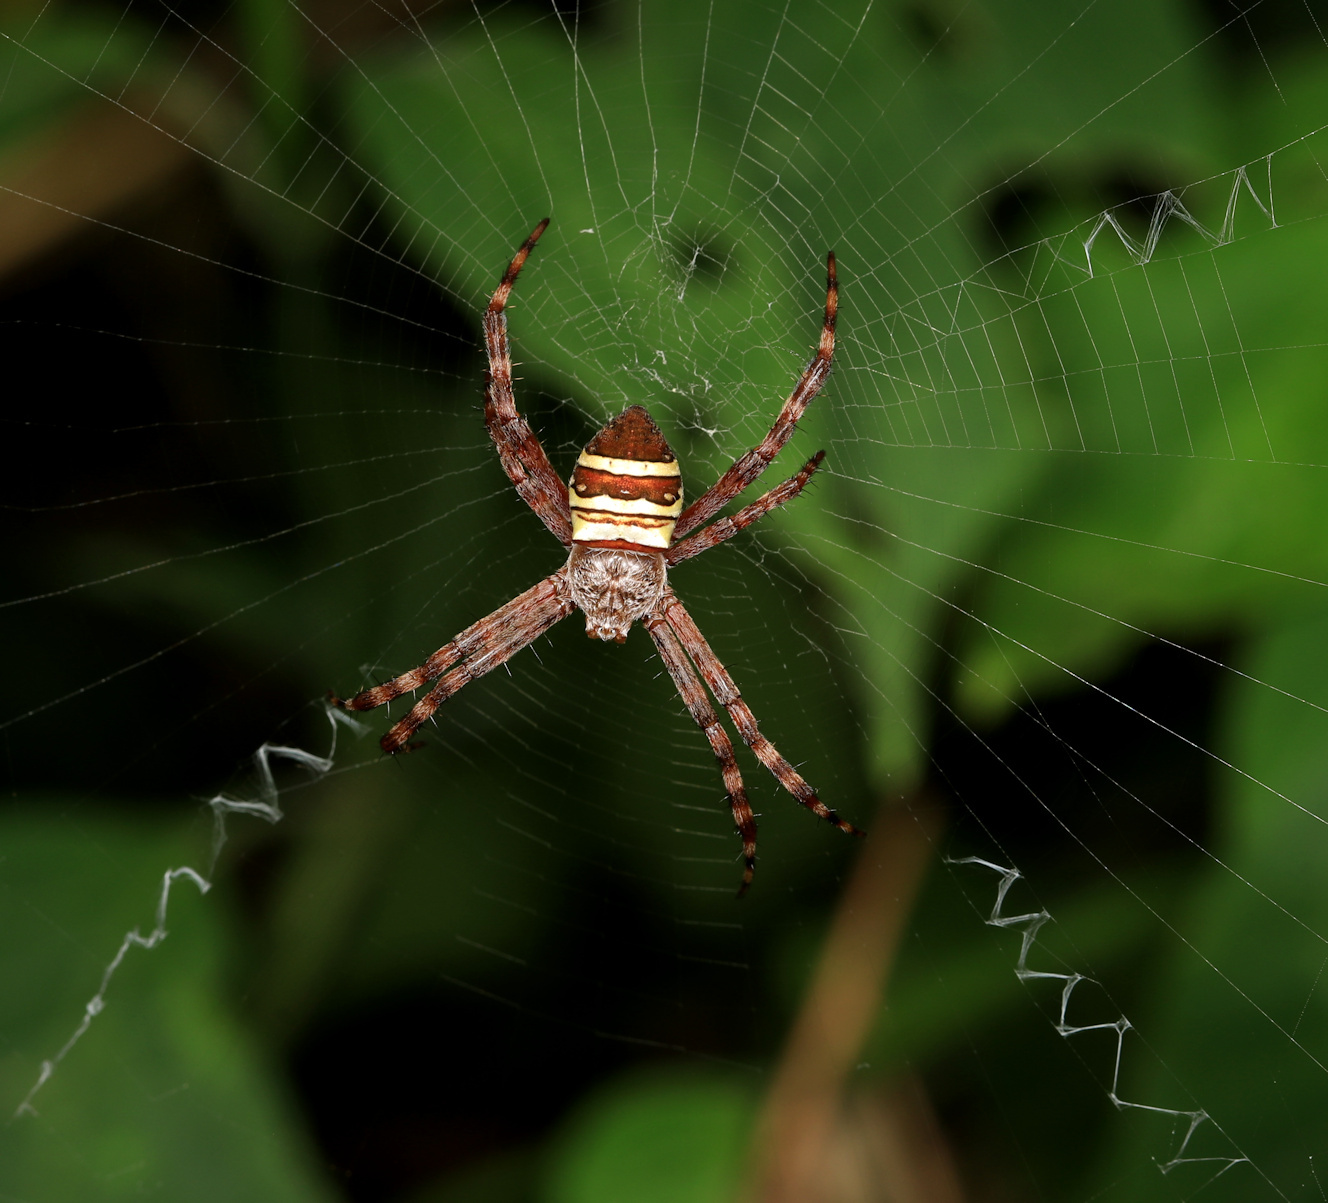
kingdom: Animalia
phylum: Arthropoda
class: Arachnida
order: Araneae
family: Araneidae
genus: Argiope
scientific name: Argiope aurocincta
